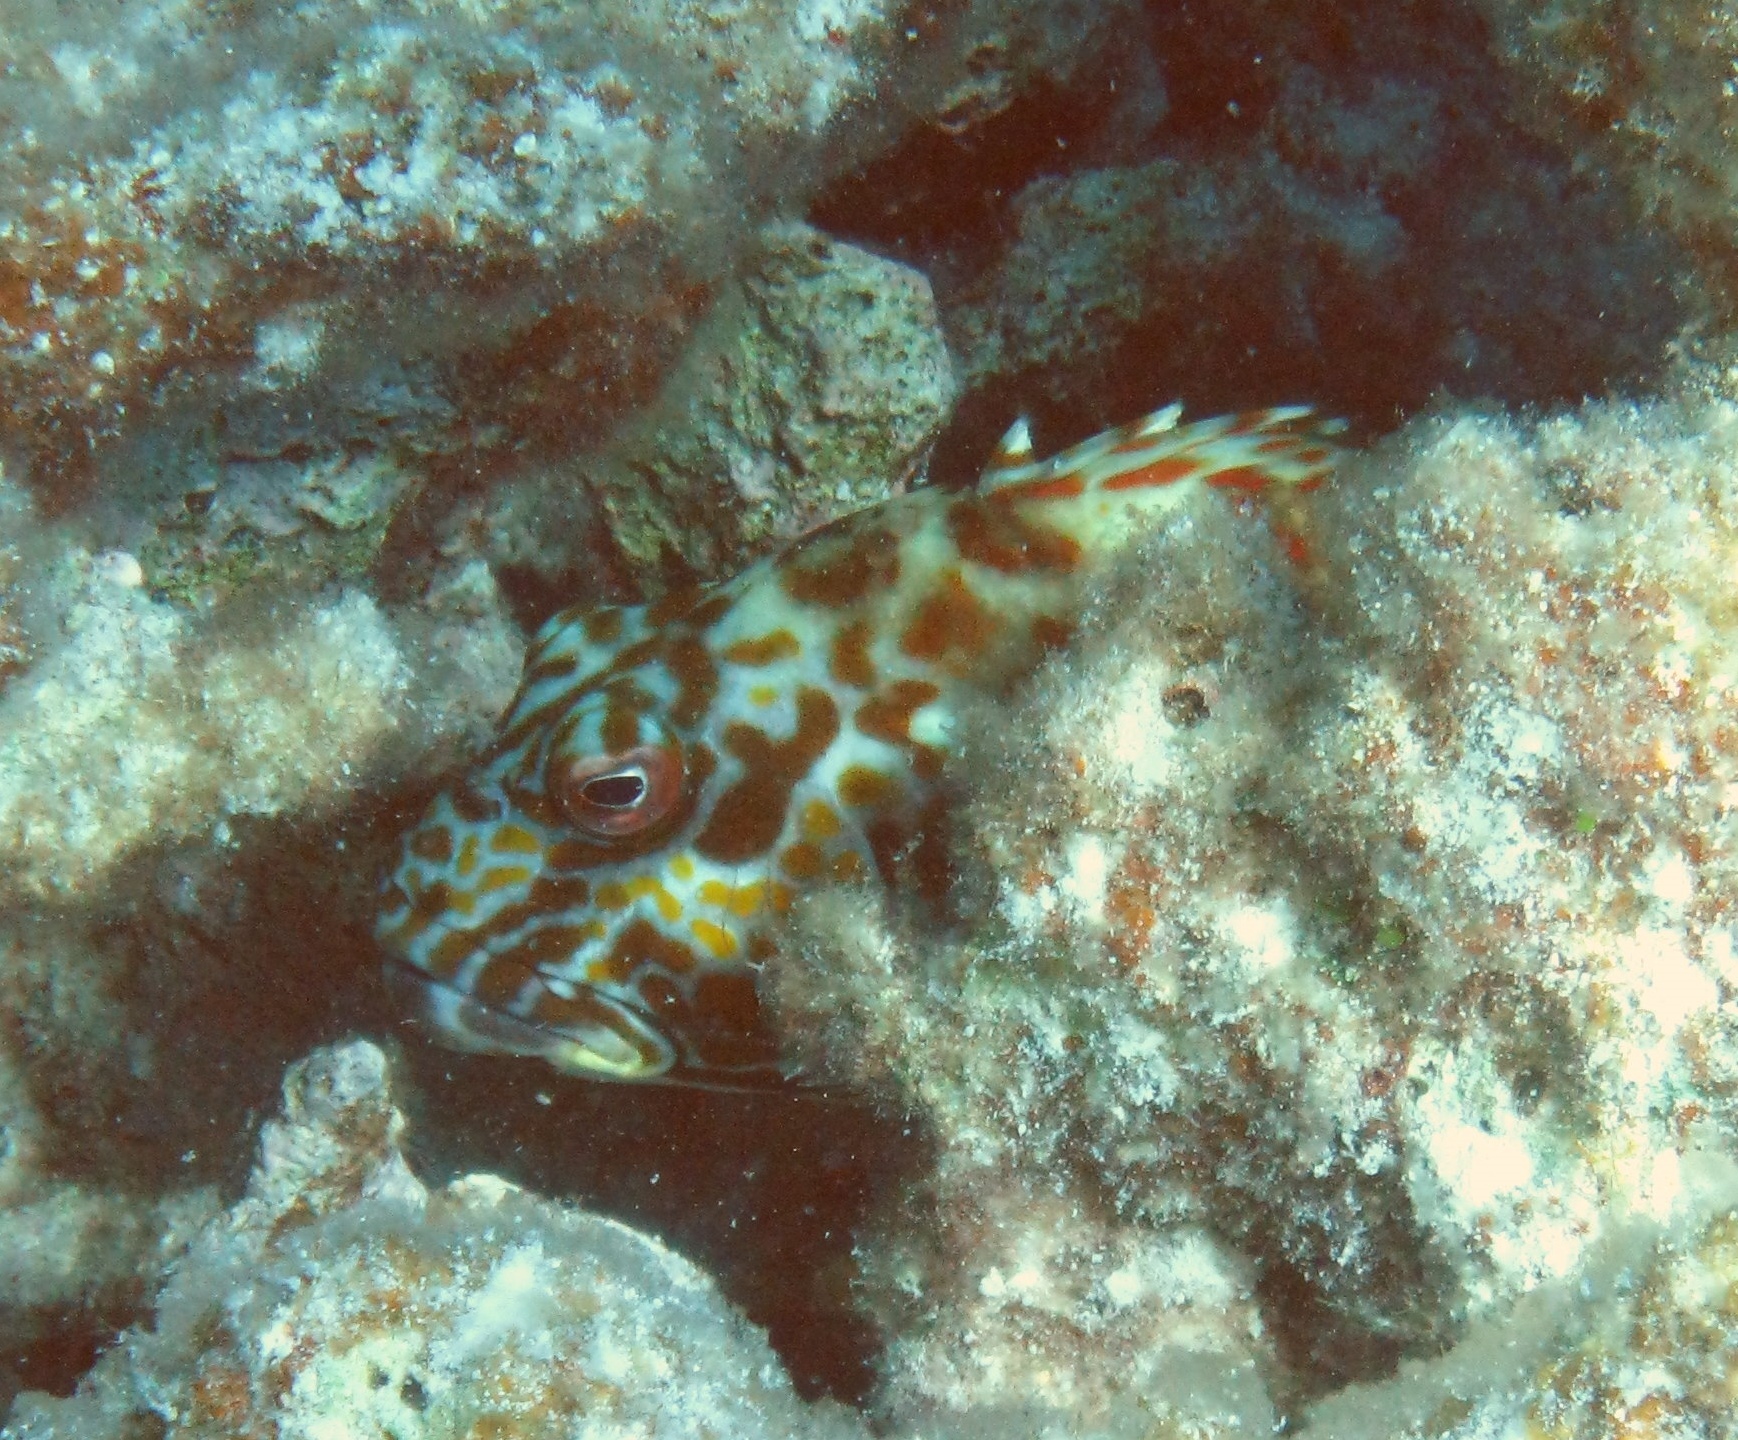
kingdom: Animalia
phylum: Chordata
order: Perciformes
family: Cirrhitidae
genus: Cirrhitus
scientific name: Cirrhitus pinnulatus
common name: Stocky hawkfish
